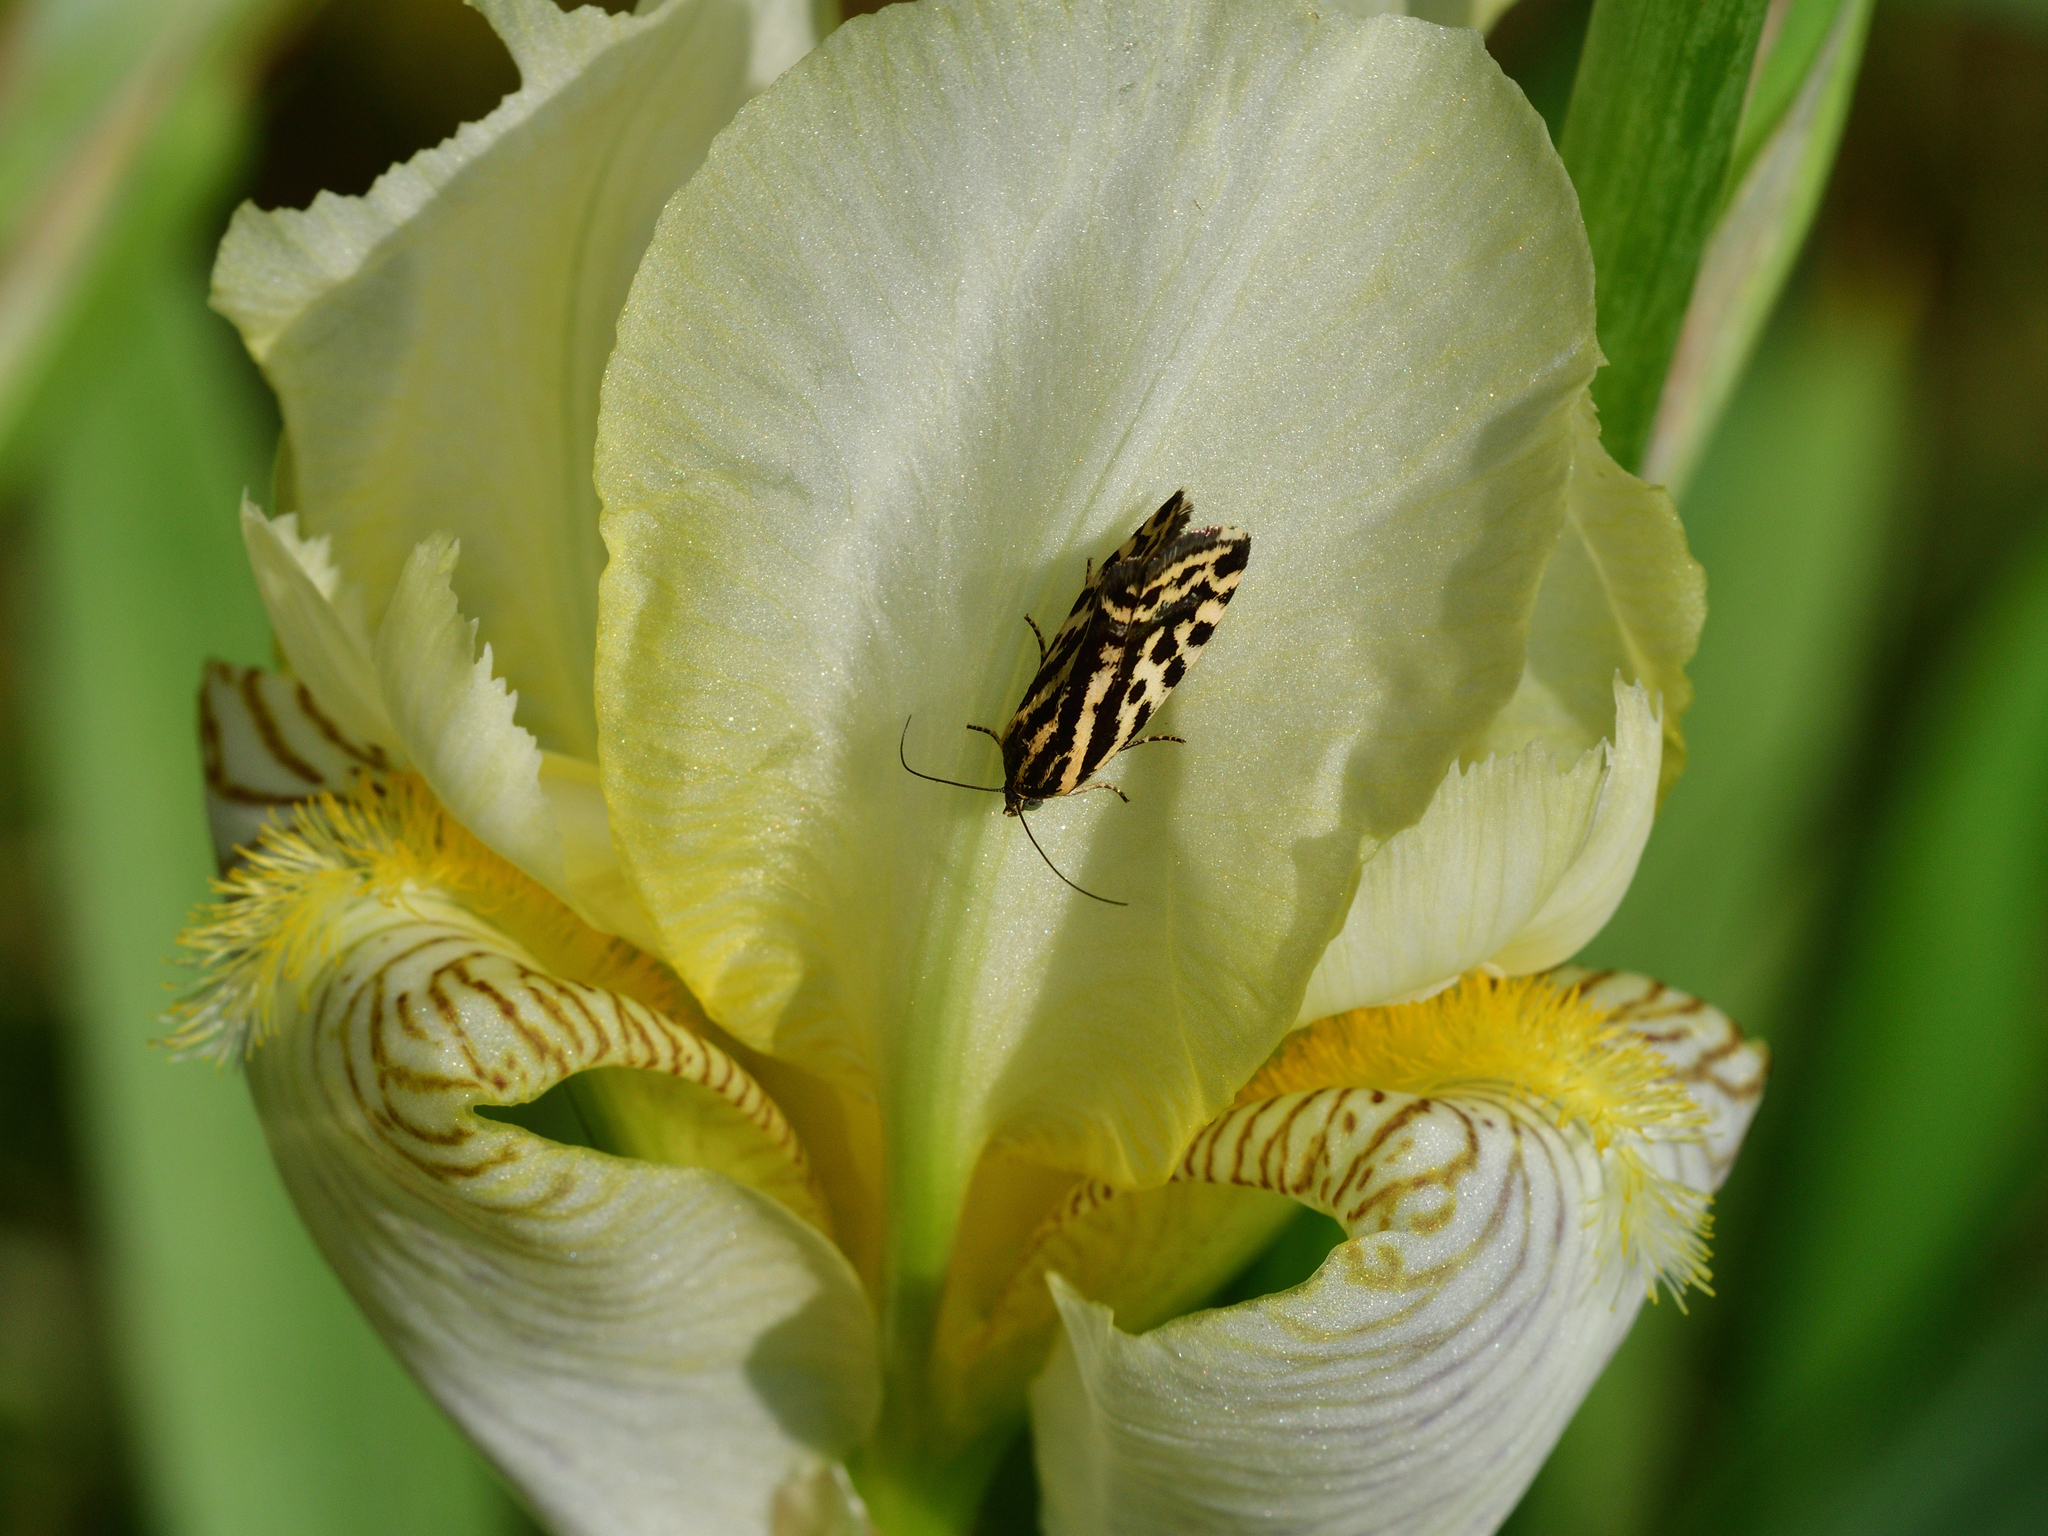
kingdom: Animalia
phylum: Arthropoda
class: Insecta
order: Lepidoptera
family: Noctuidae
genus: Acontia
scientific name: Acontia trabealis
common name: Spotted sulphur
